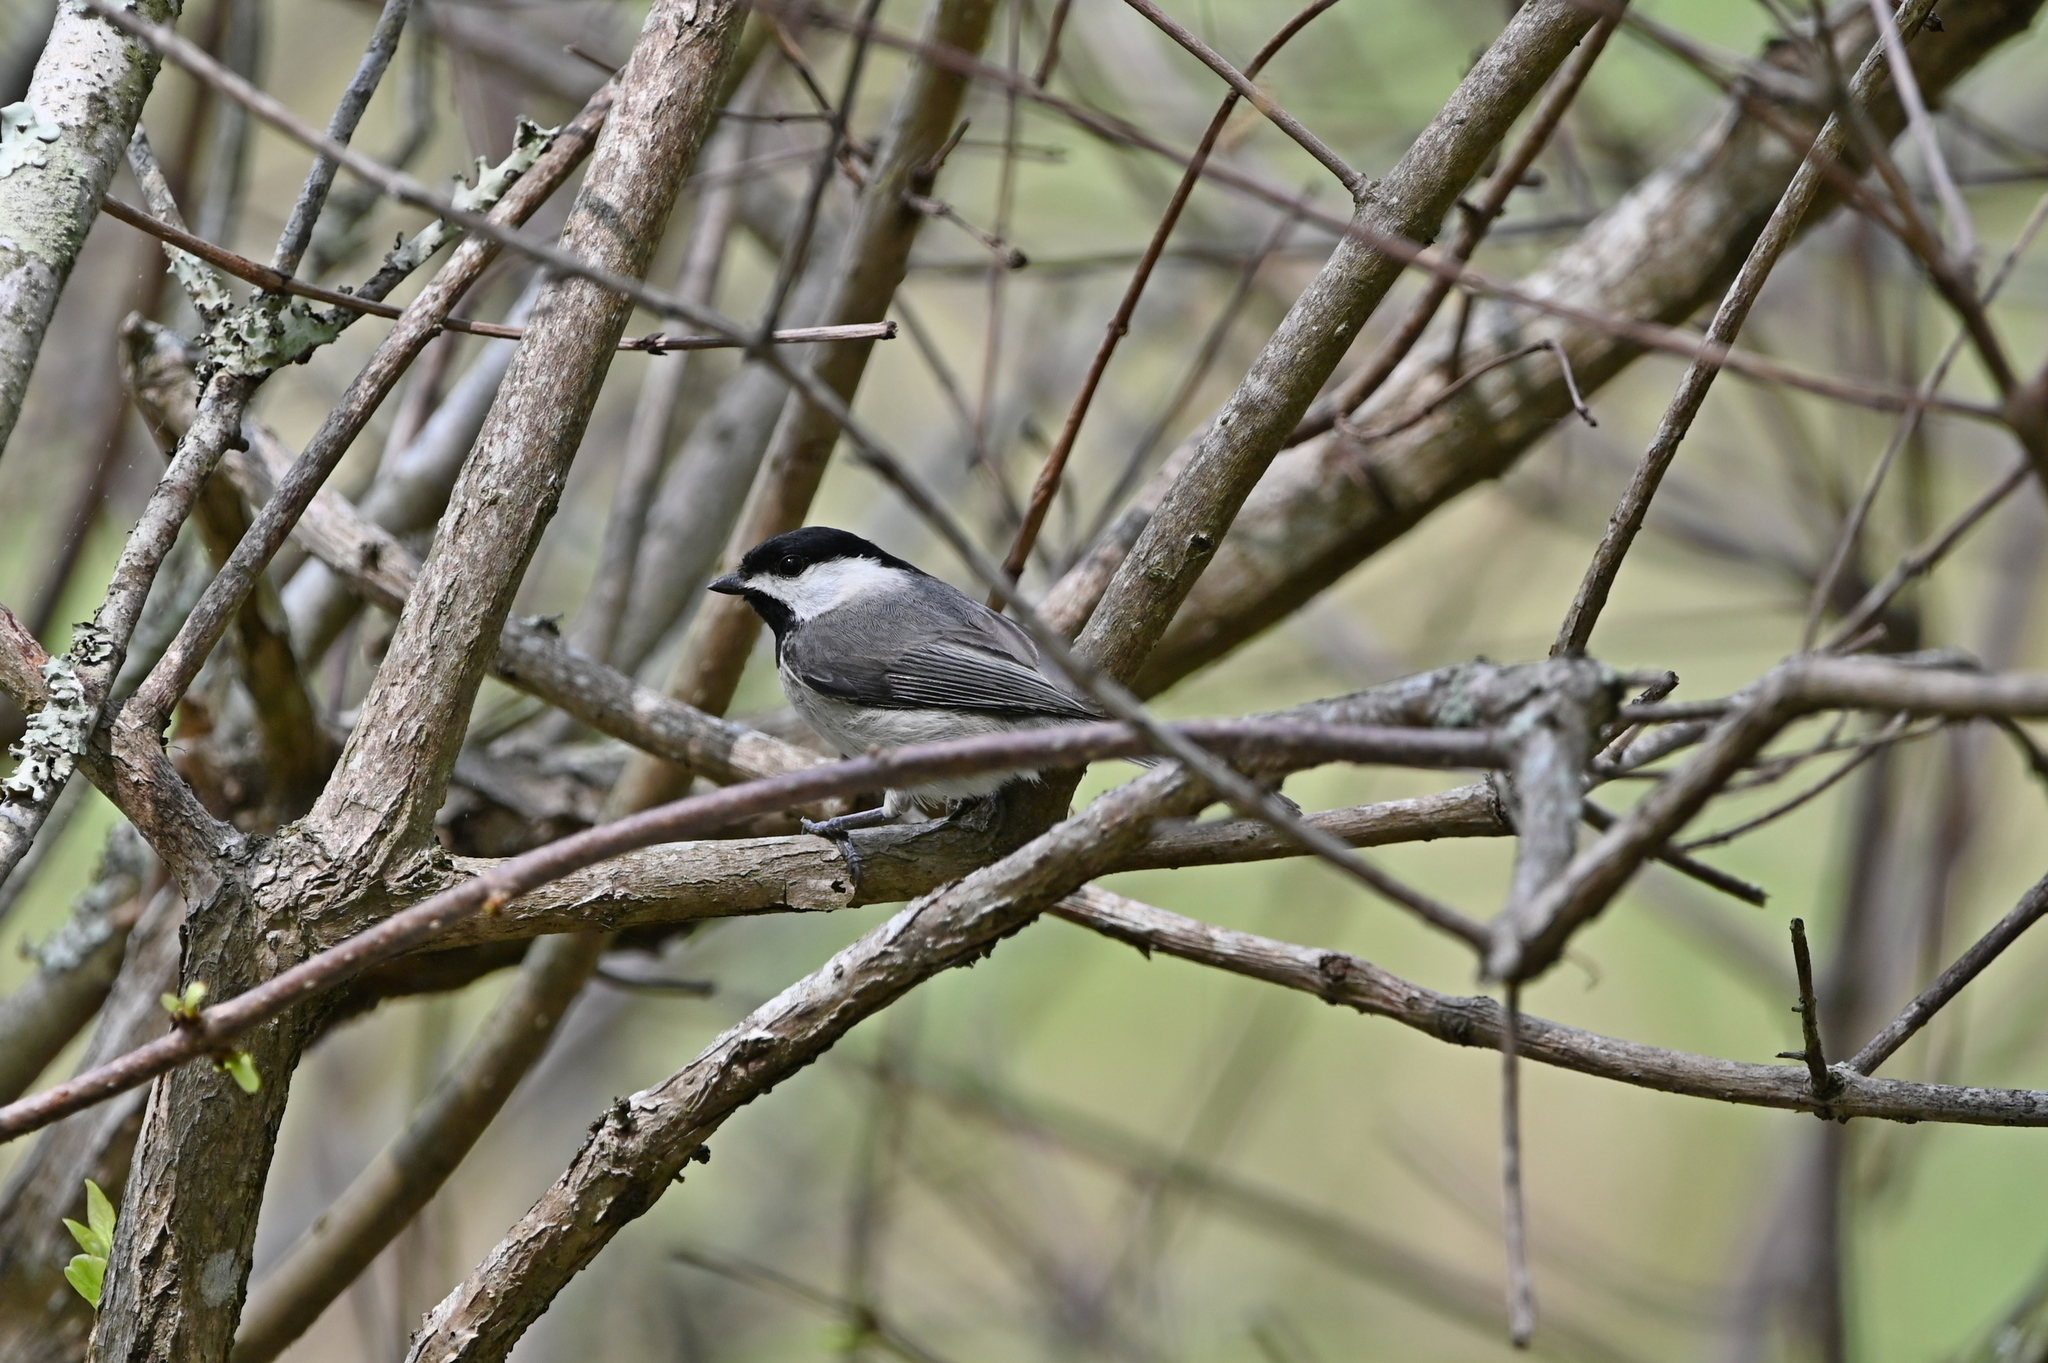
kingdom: Animalia
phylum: Chordata
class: Aves
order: Passeriformes
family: Paridae
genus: Poecile
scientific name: Poecile carolinensis
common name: Carolina chickadee
